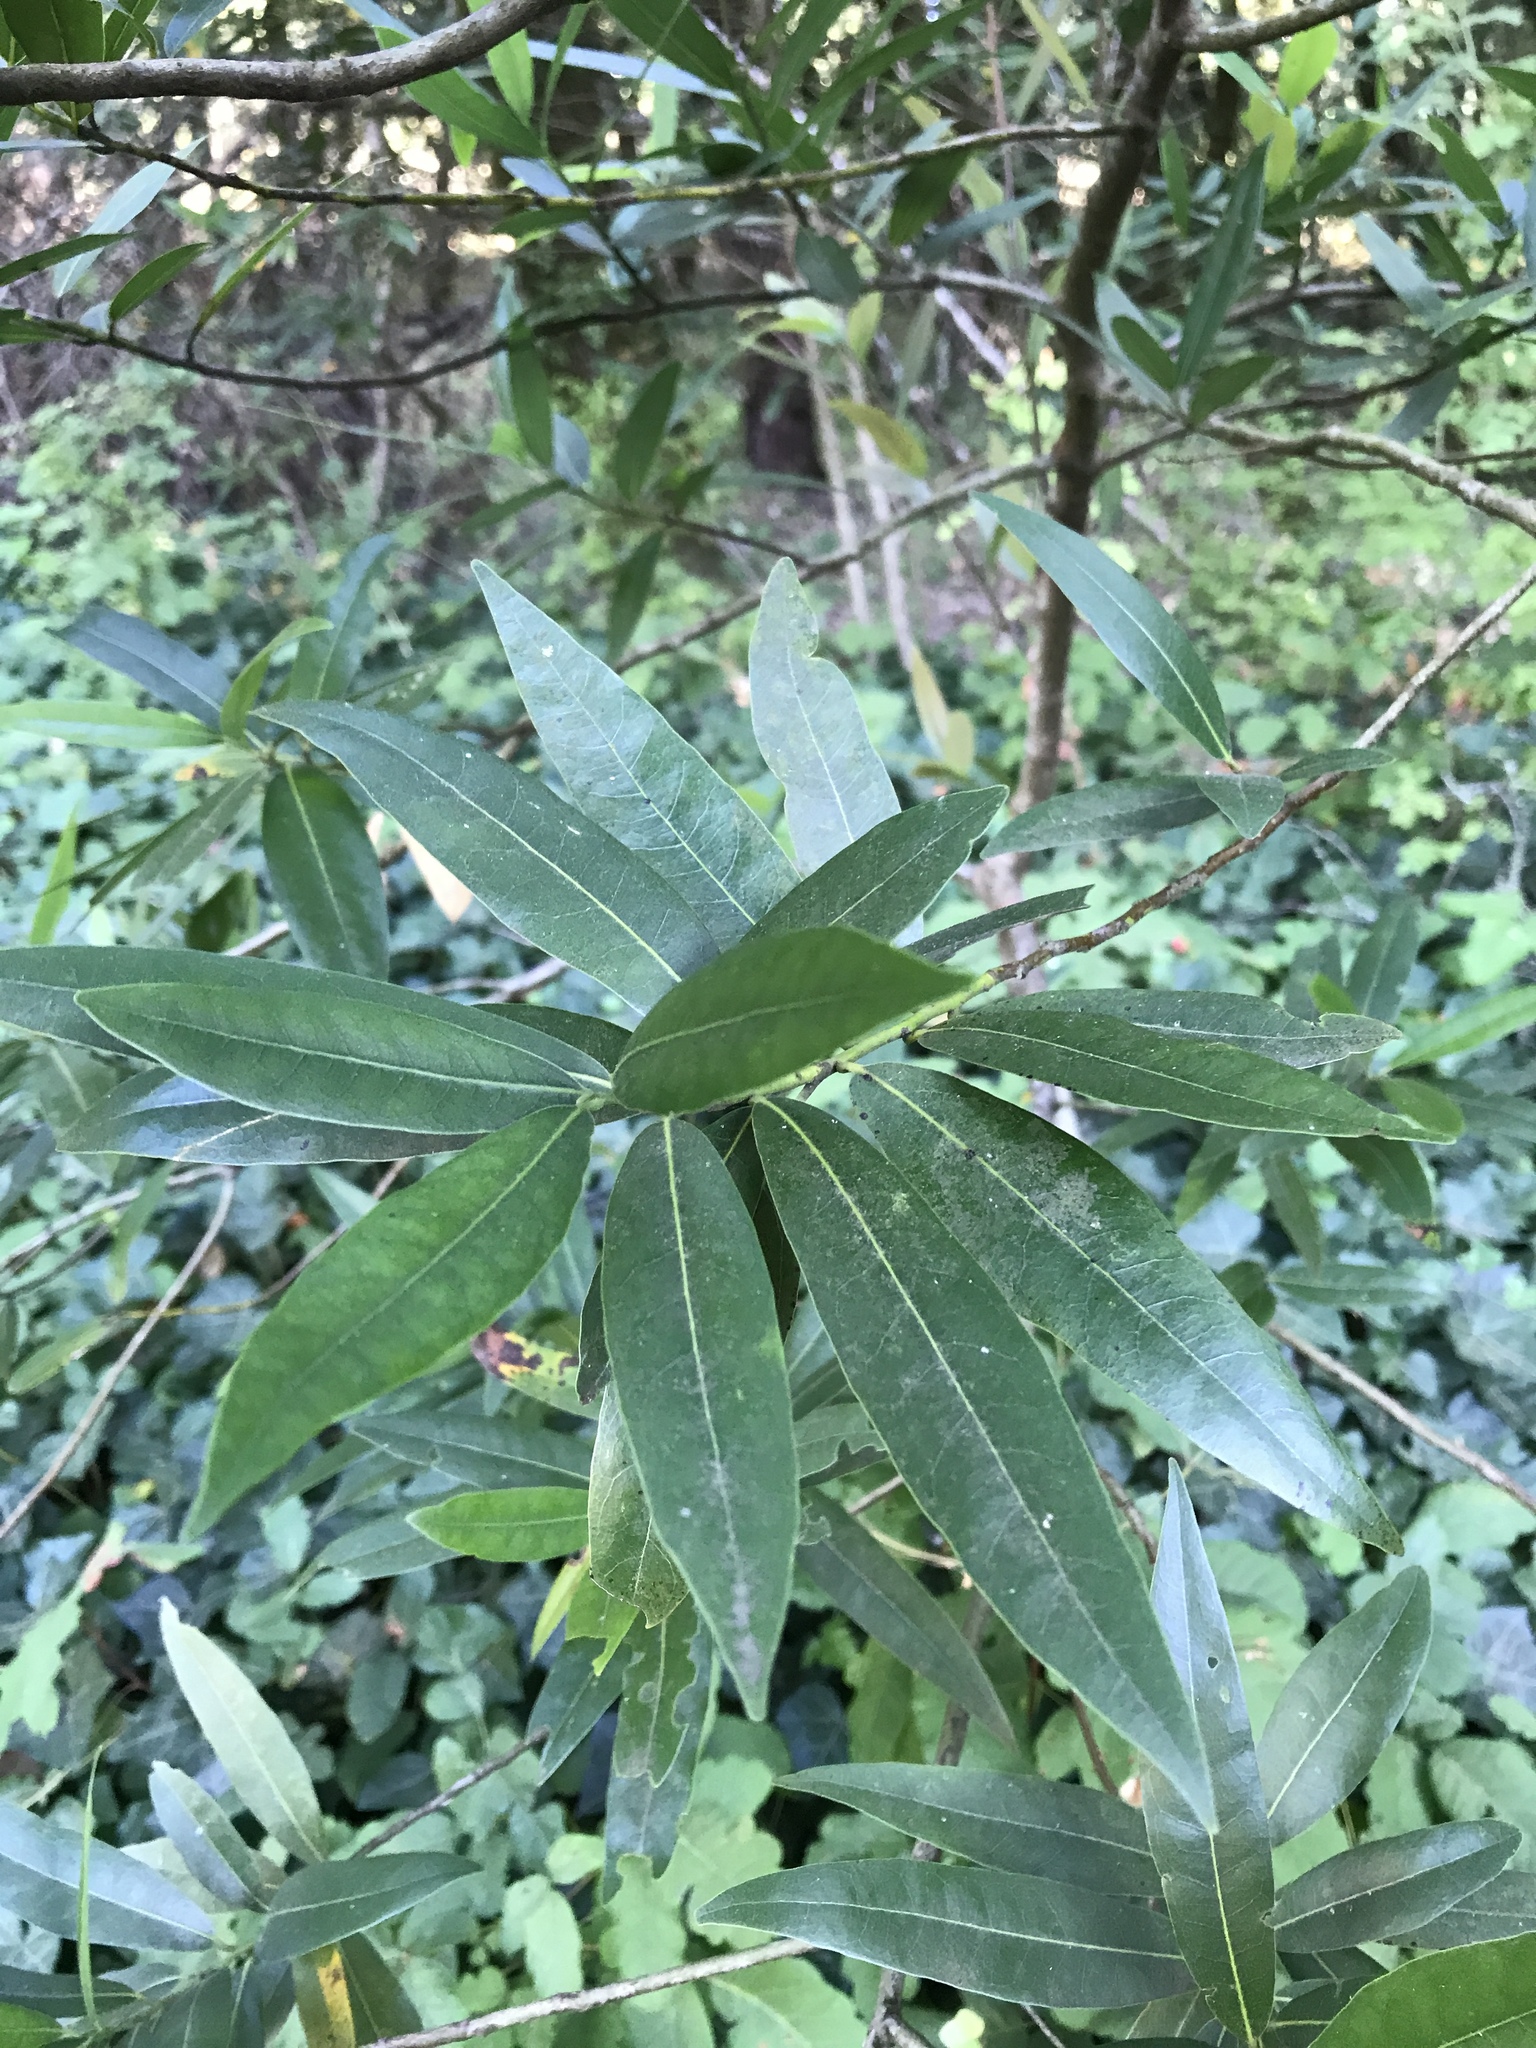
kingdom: Plantae
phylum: Tracheophyta
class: Magnoliopsida
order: Laurales
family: Lauraceae
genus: Umbellularia
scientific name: Umbellularia californica
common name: California bay
